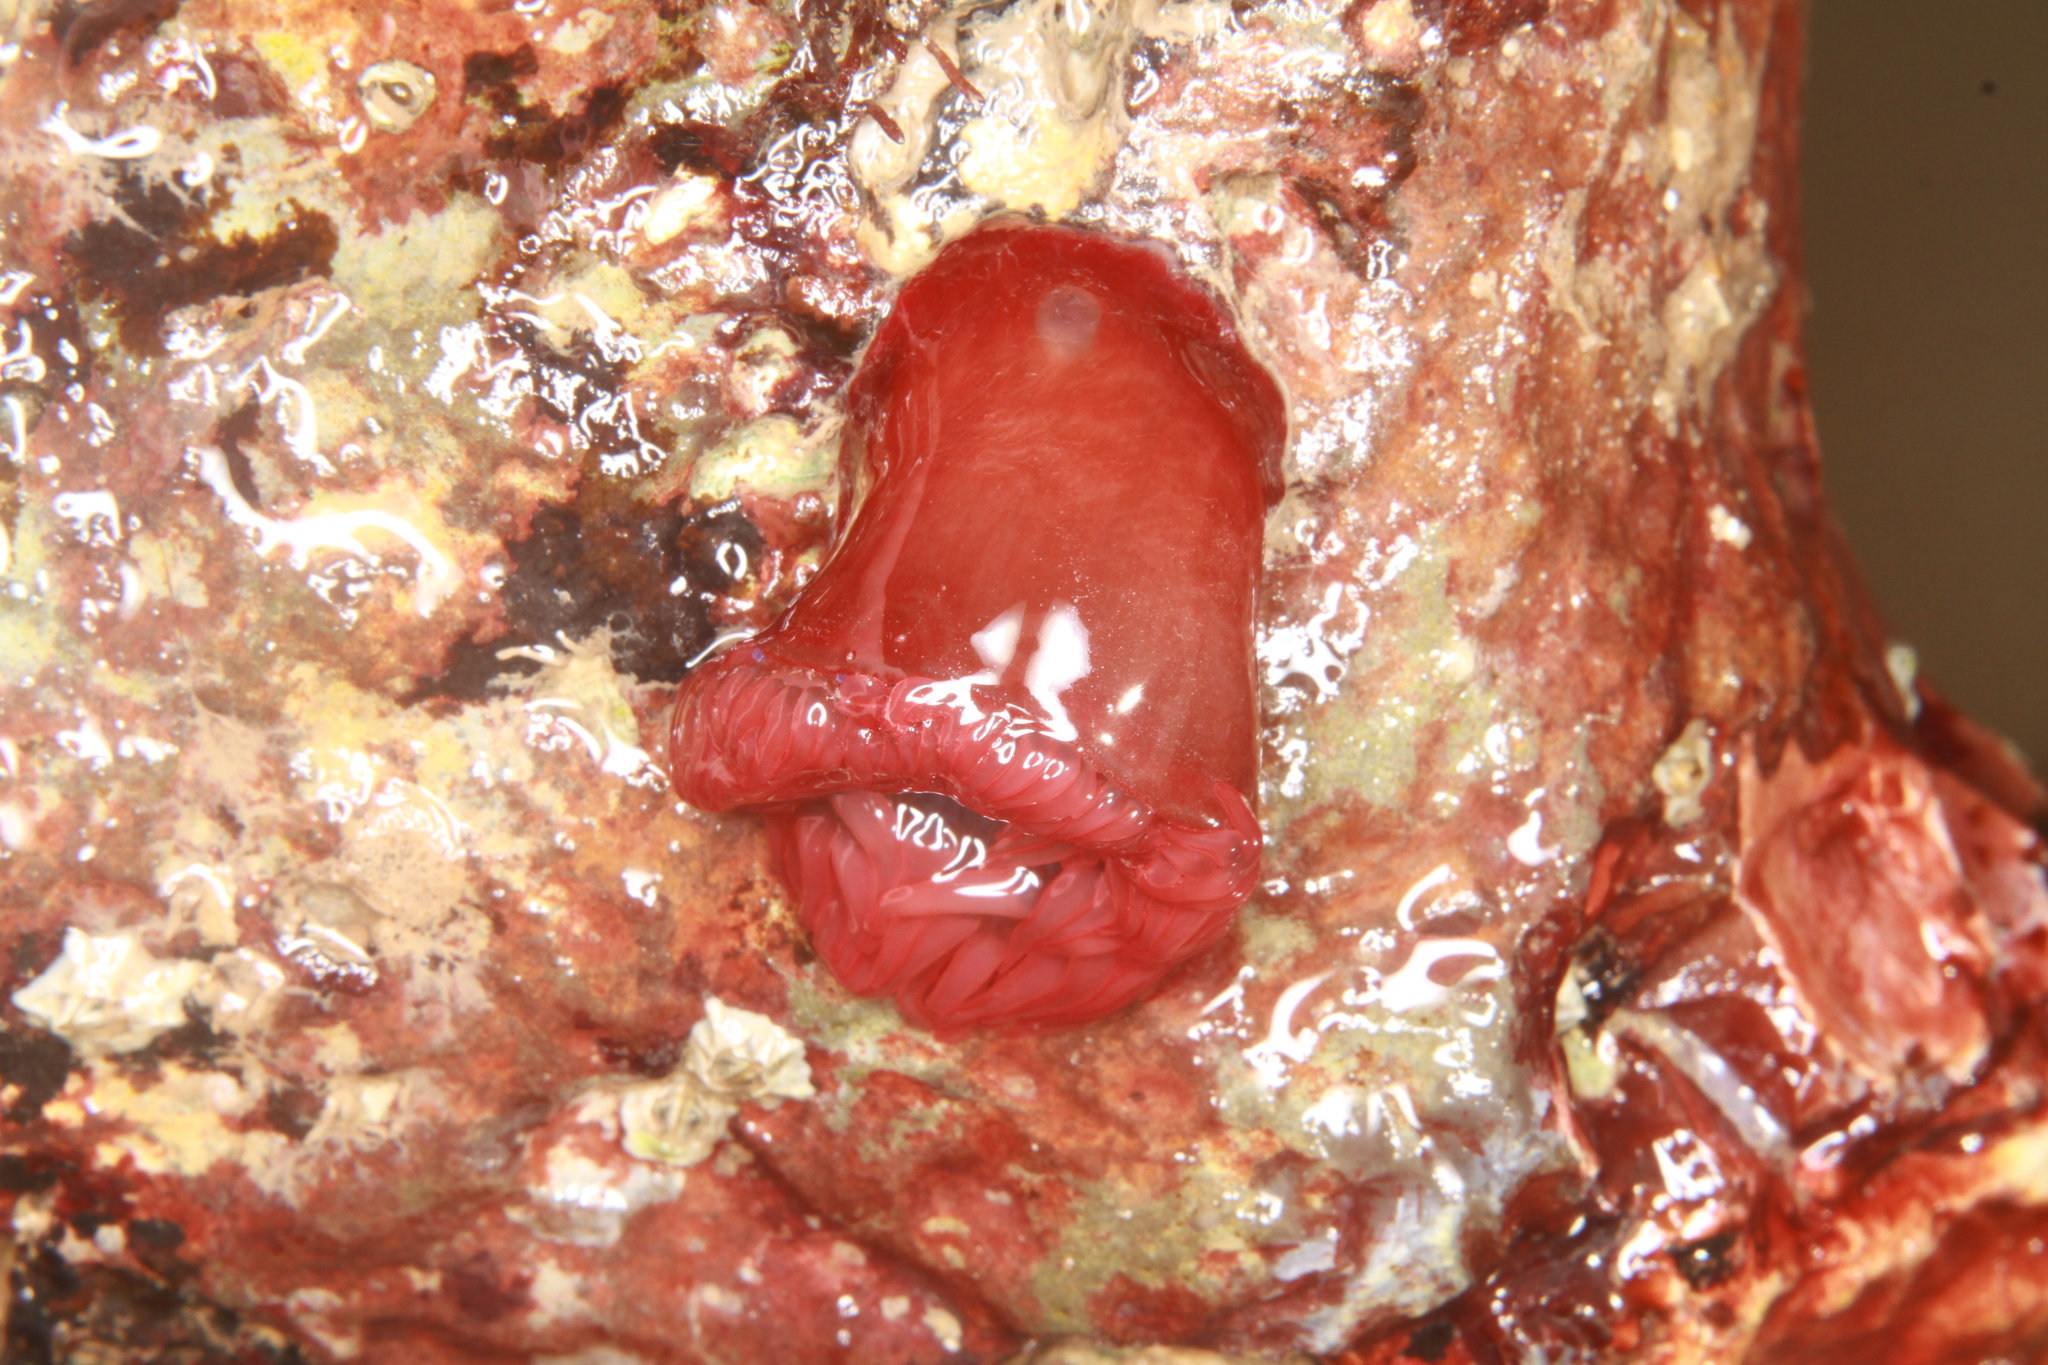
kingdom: Animalia
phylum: Cnidaria
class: Anthozoa
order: Actiniaria
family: Actiniidae
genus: Actinia
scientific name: Actinia equina
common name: Beadlet anemone
